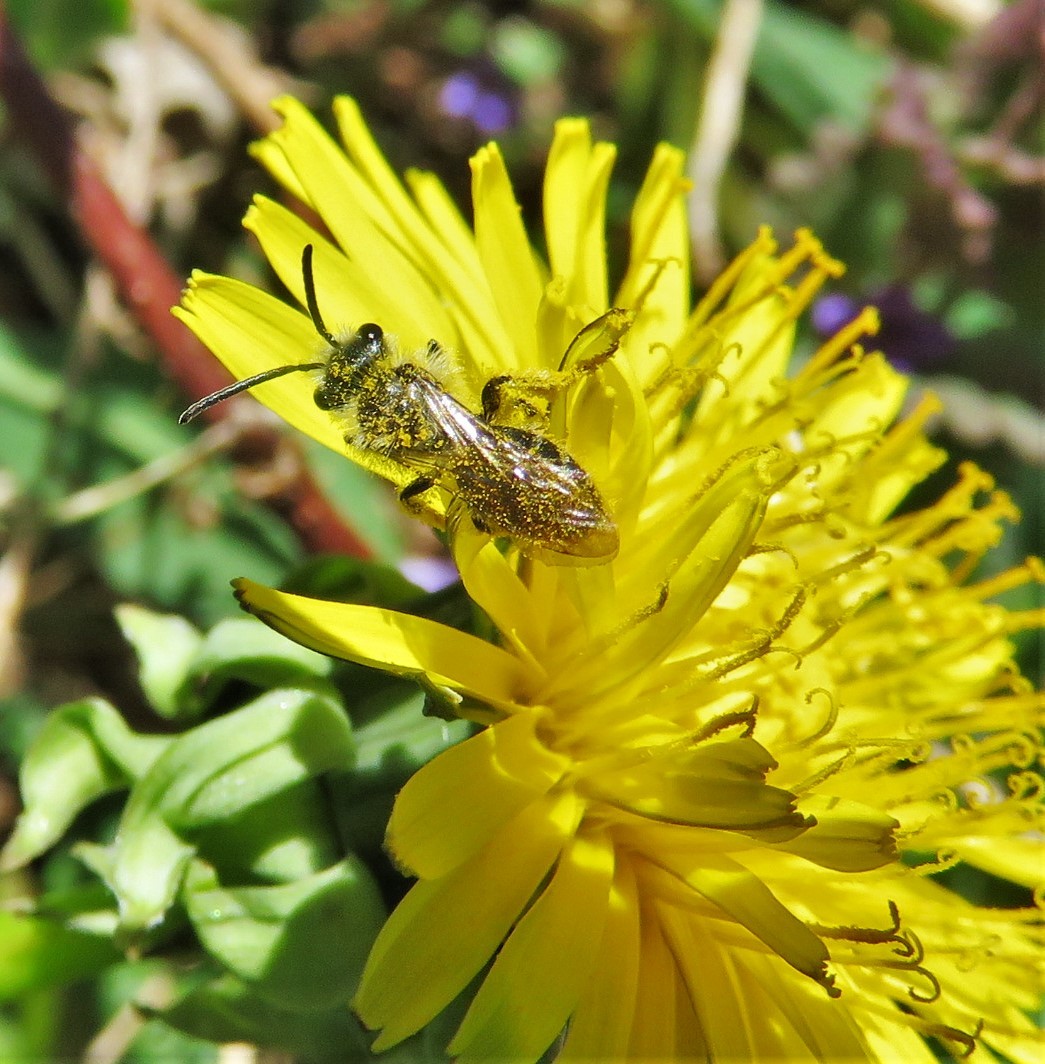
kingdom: Animalia
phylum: Arthropoda
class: Insecta
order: Hymenoptera
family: Andrenidae
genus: Andrena
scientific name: Andrena
